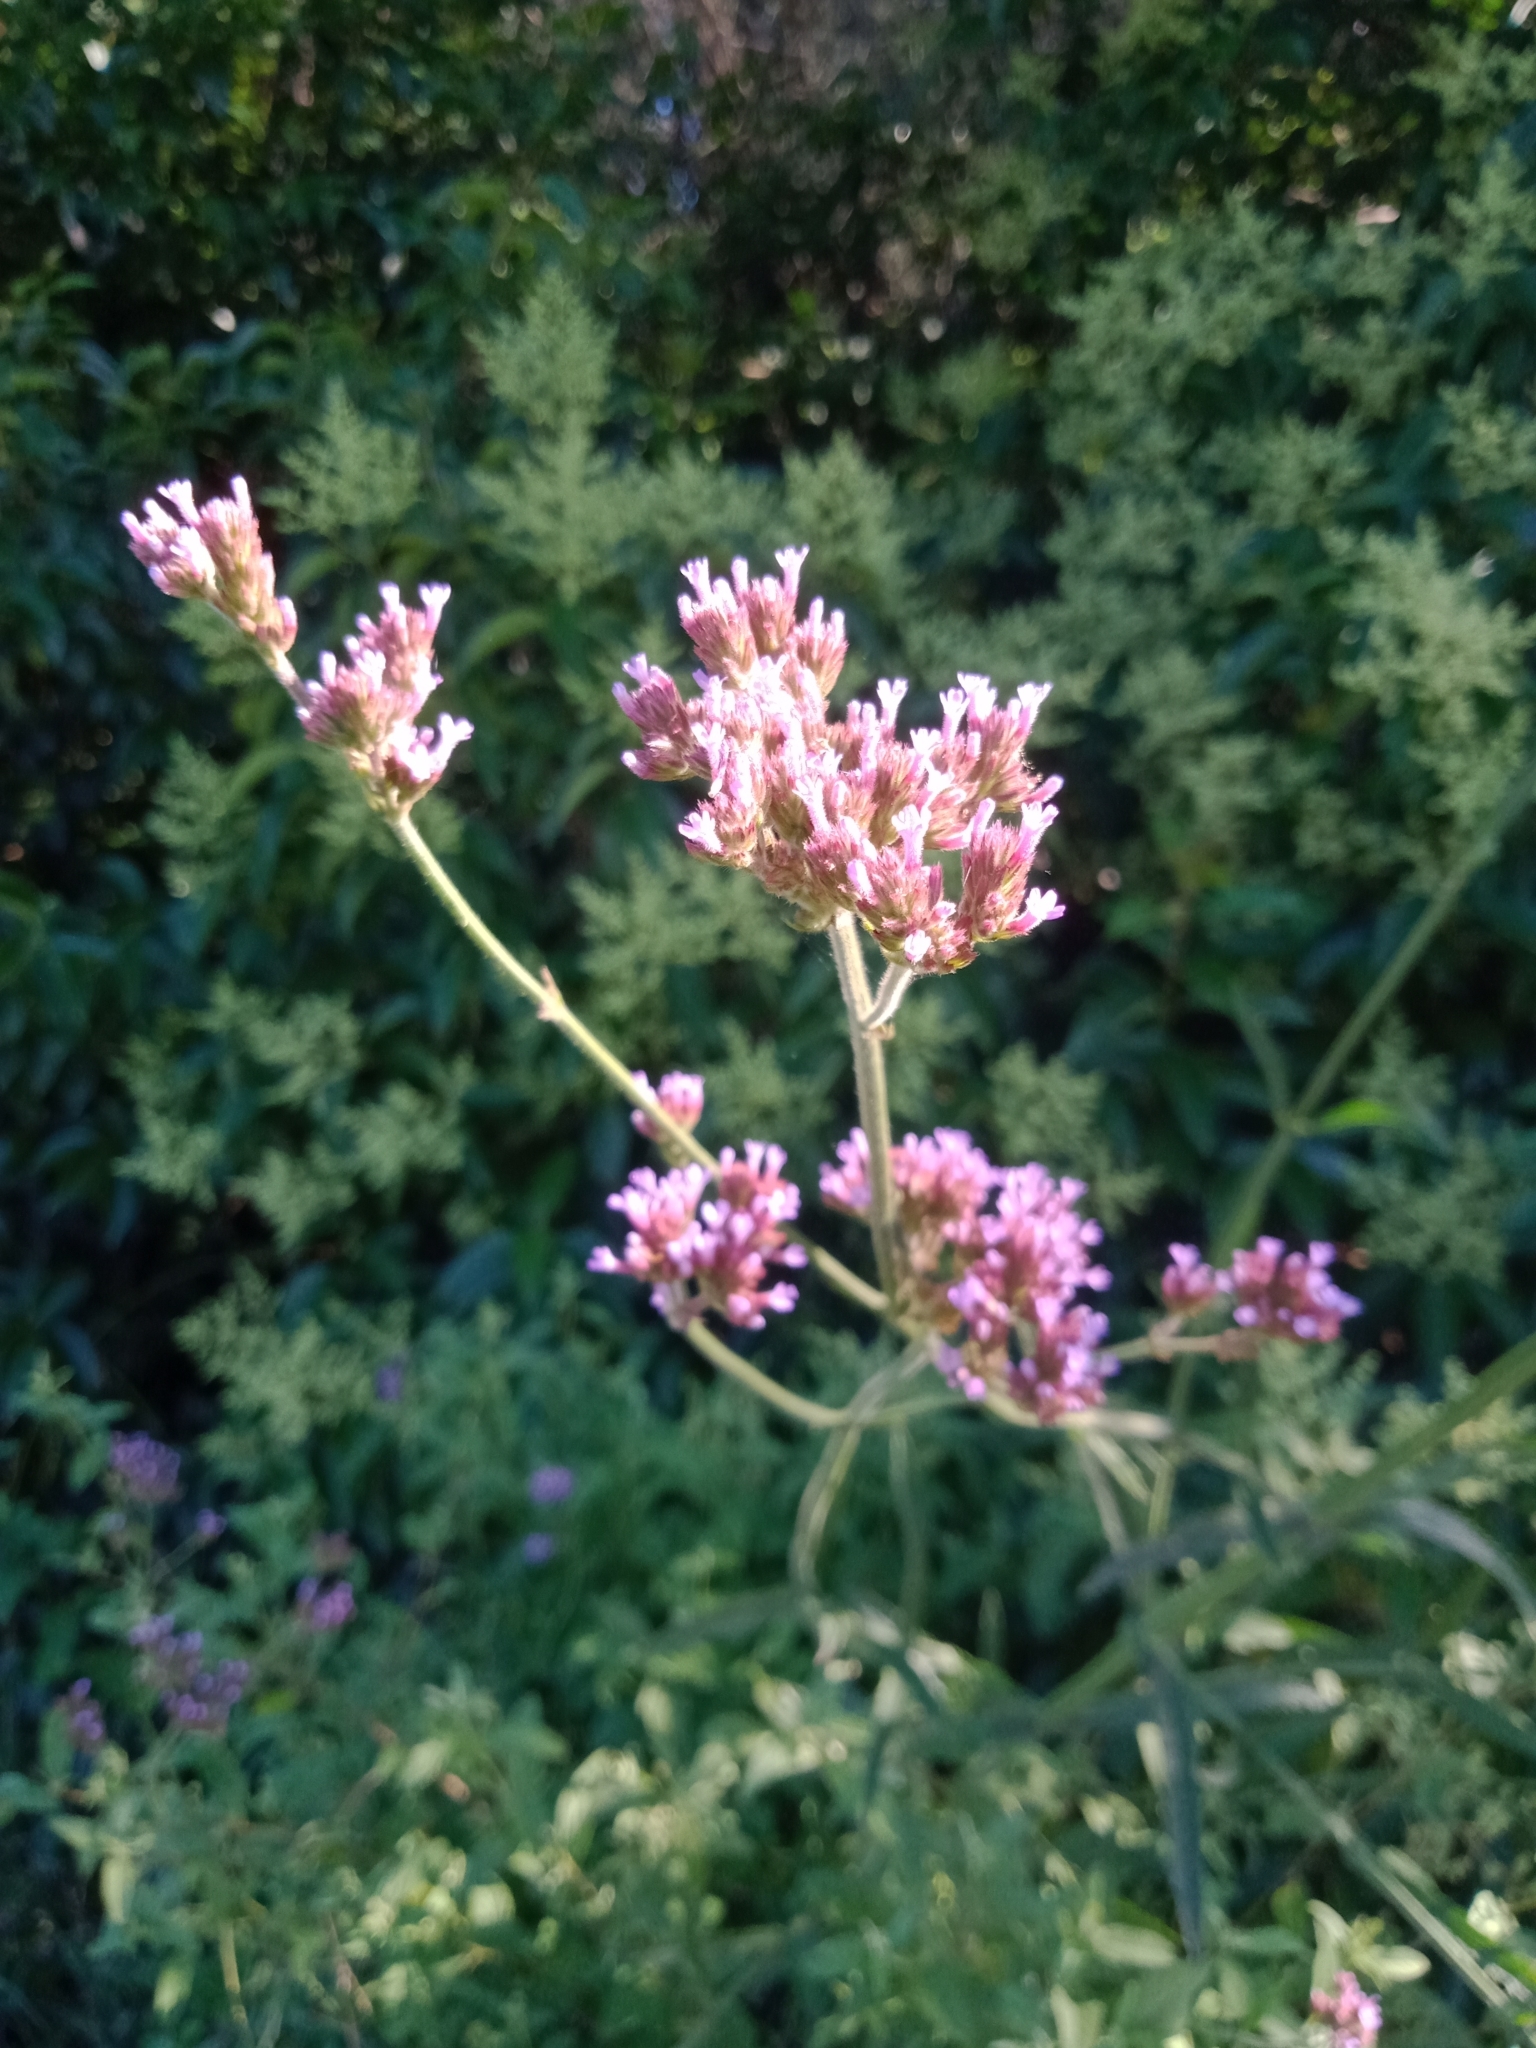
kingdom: Plantae
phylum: Tracheophyta
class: Magnoliopsida
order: Lamiales
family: Verbenaceae
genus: Verbena
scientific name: Verbena bonariensis
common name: Purpletop vervain
